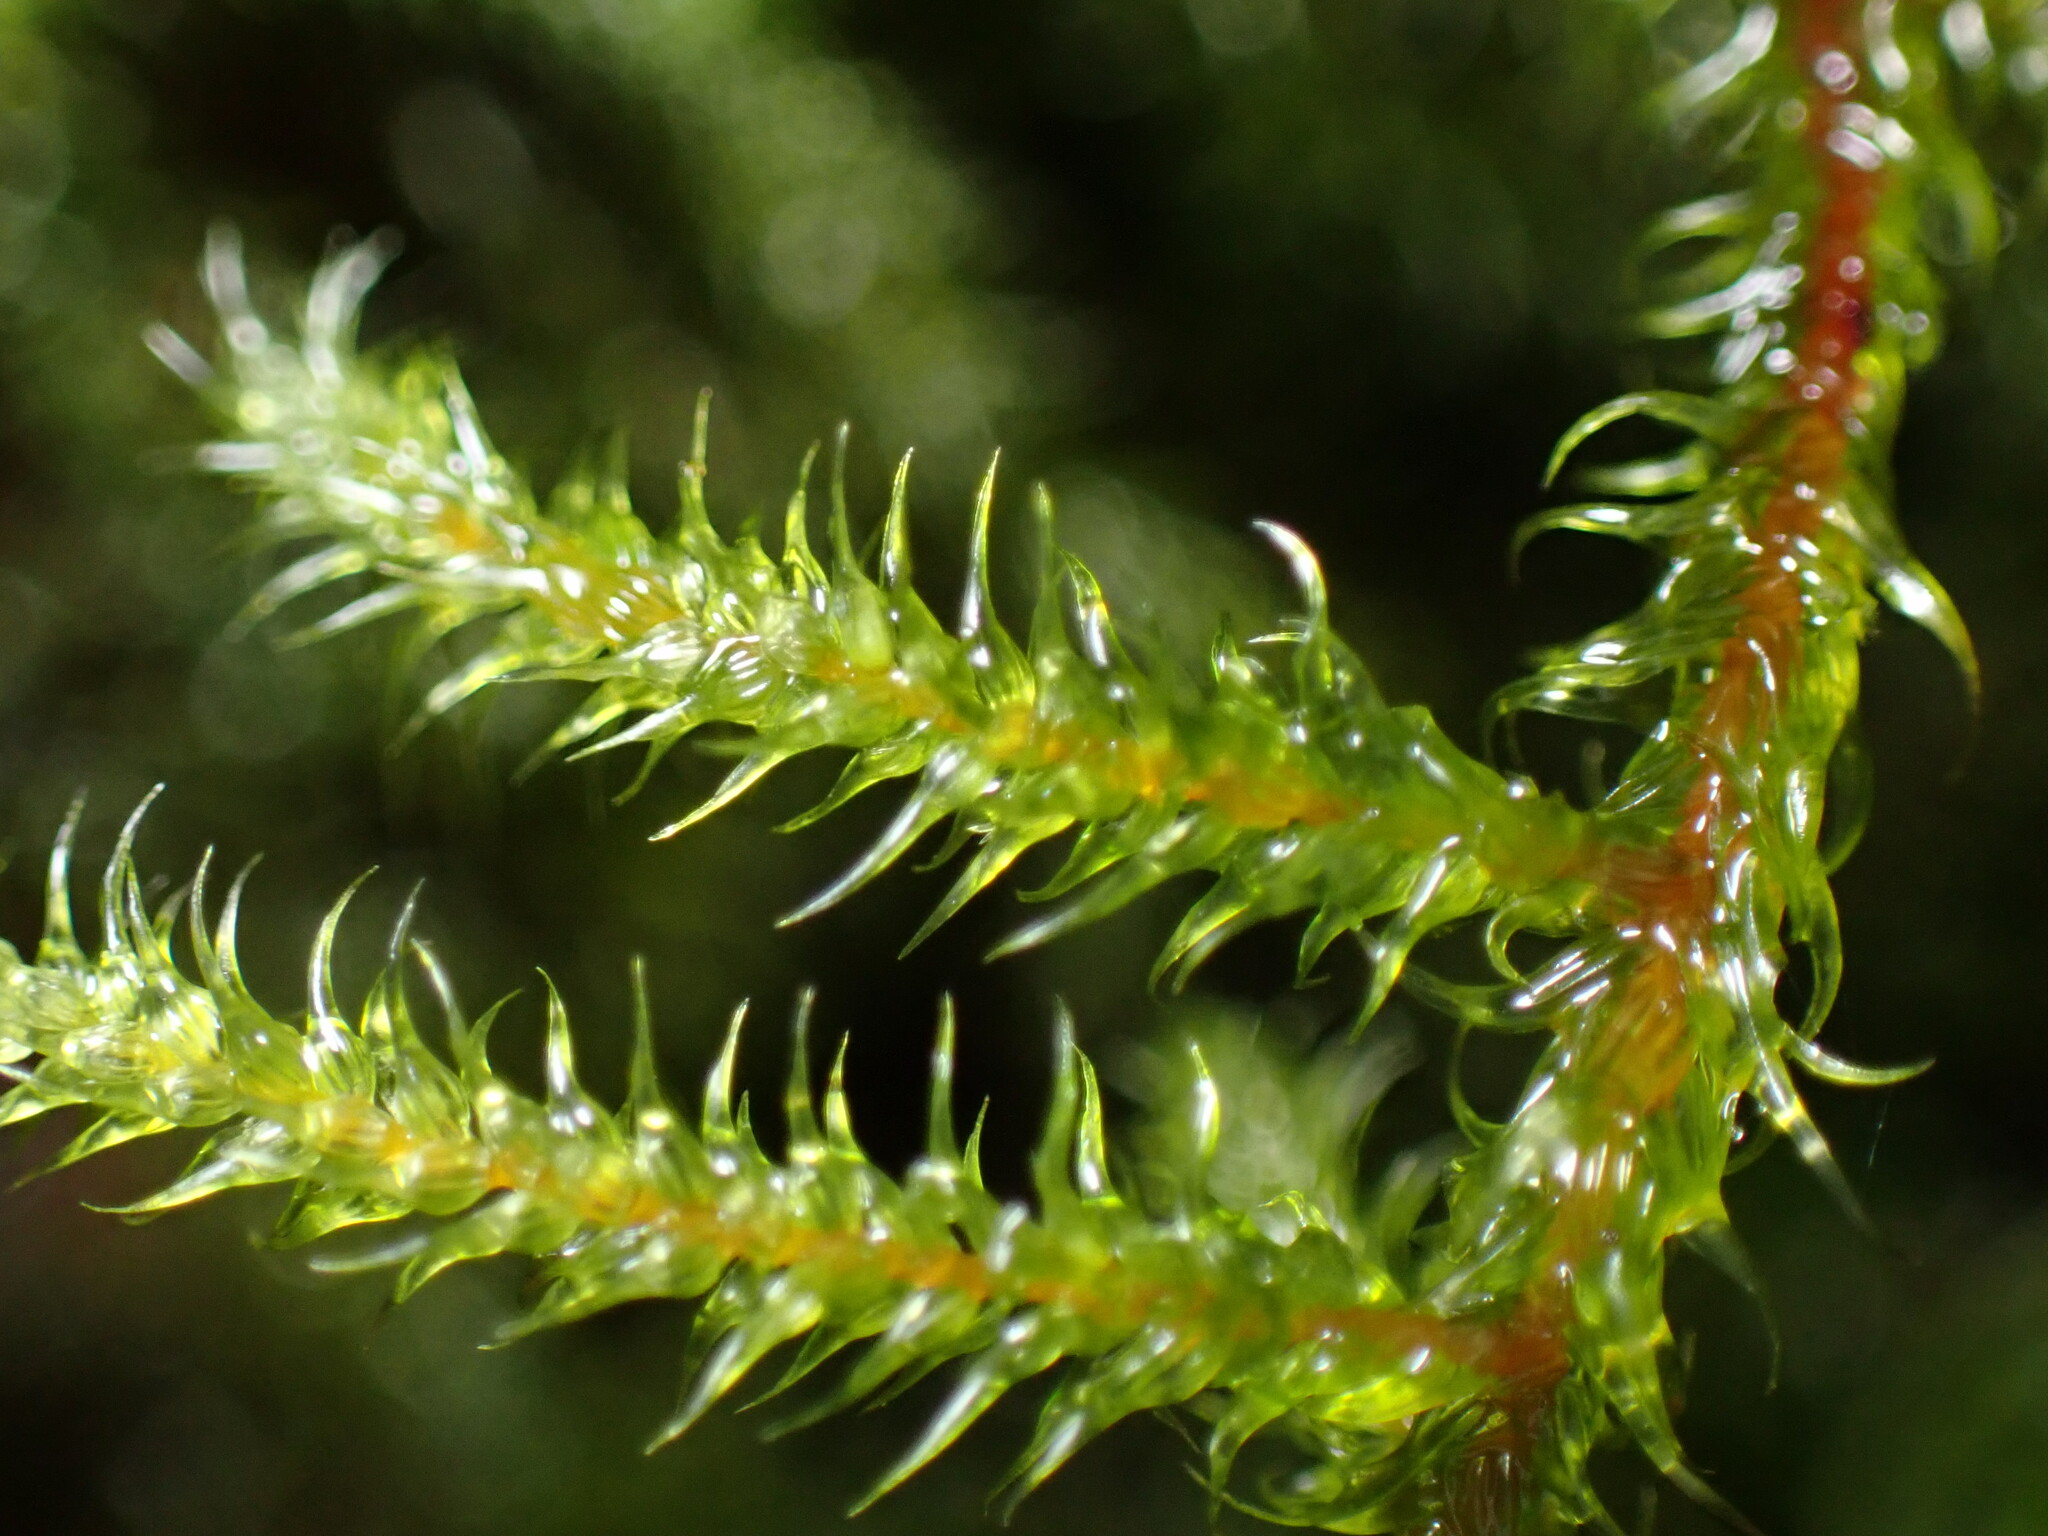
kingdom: Plantae
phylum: Bryophyta
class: Bryopsida
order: Hypnales
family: Hylocomiaceae
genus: Rhytidiadelphus
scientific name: Rhytidiadelphus loreus
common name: Lanky moss
